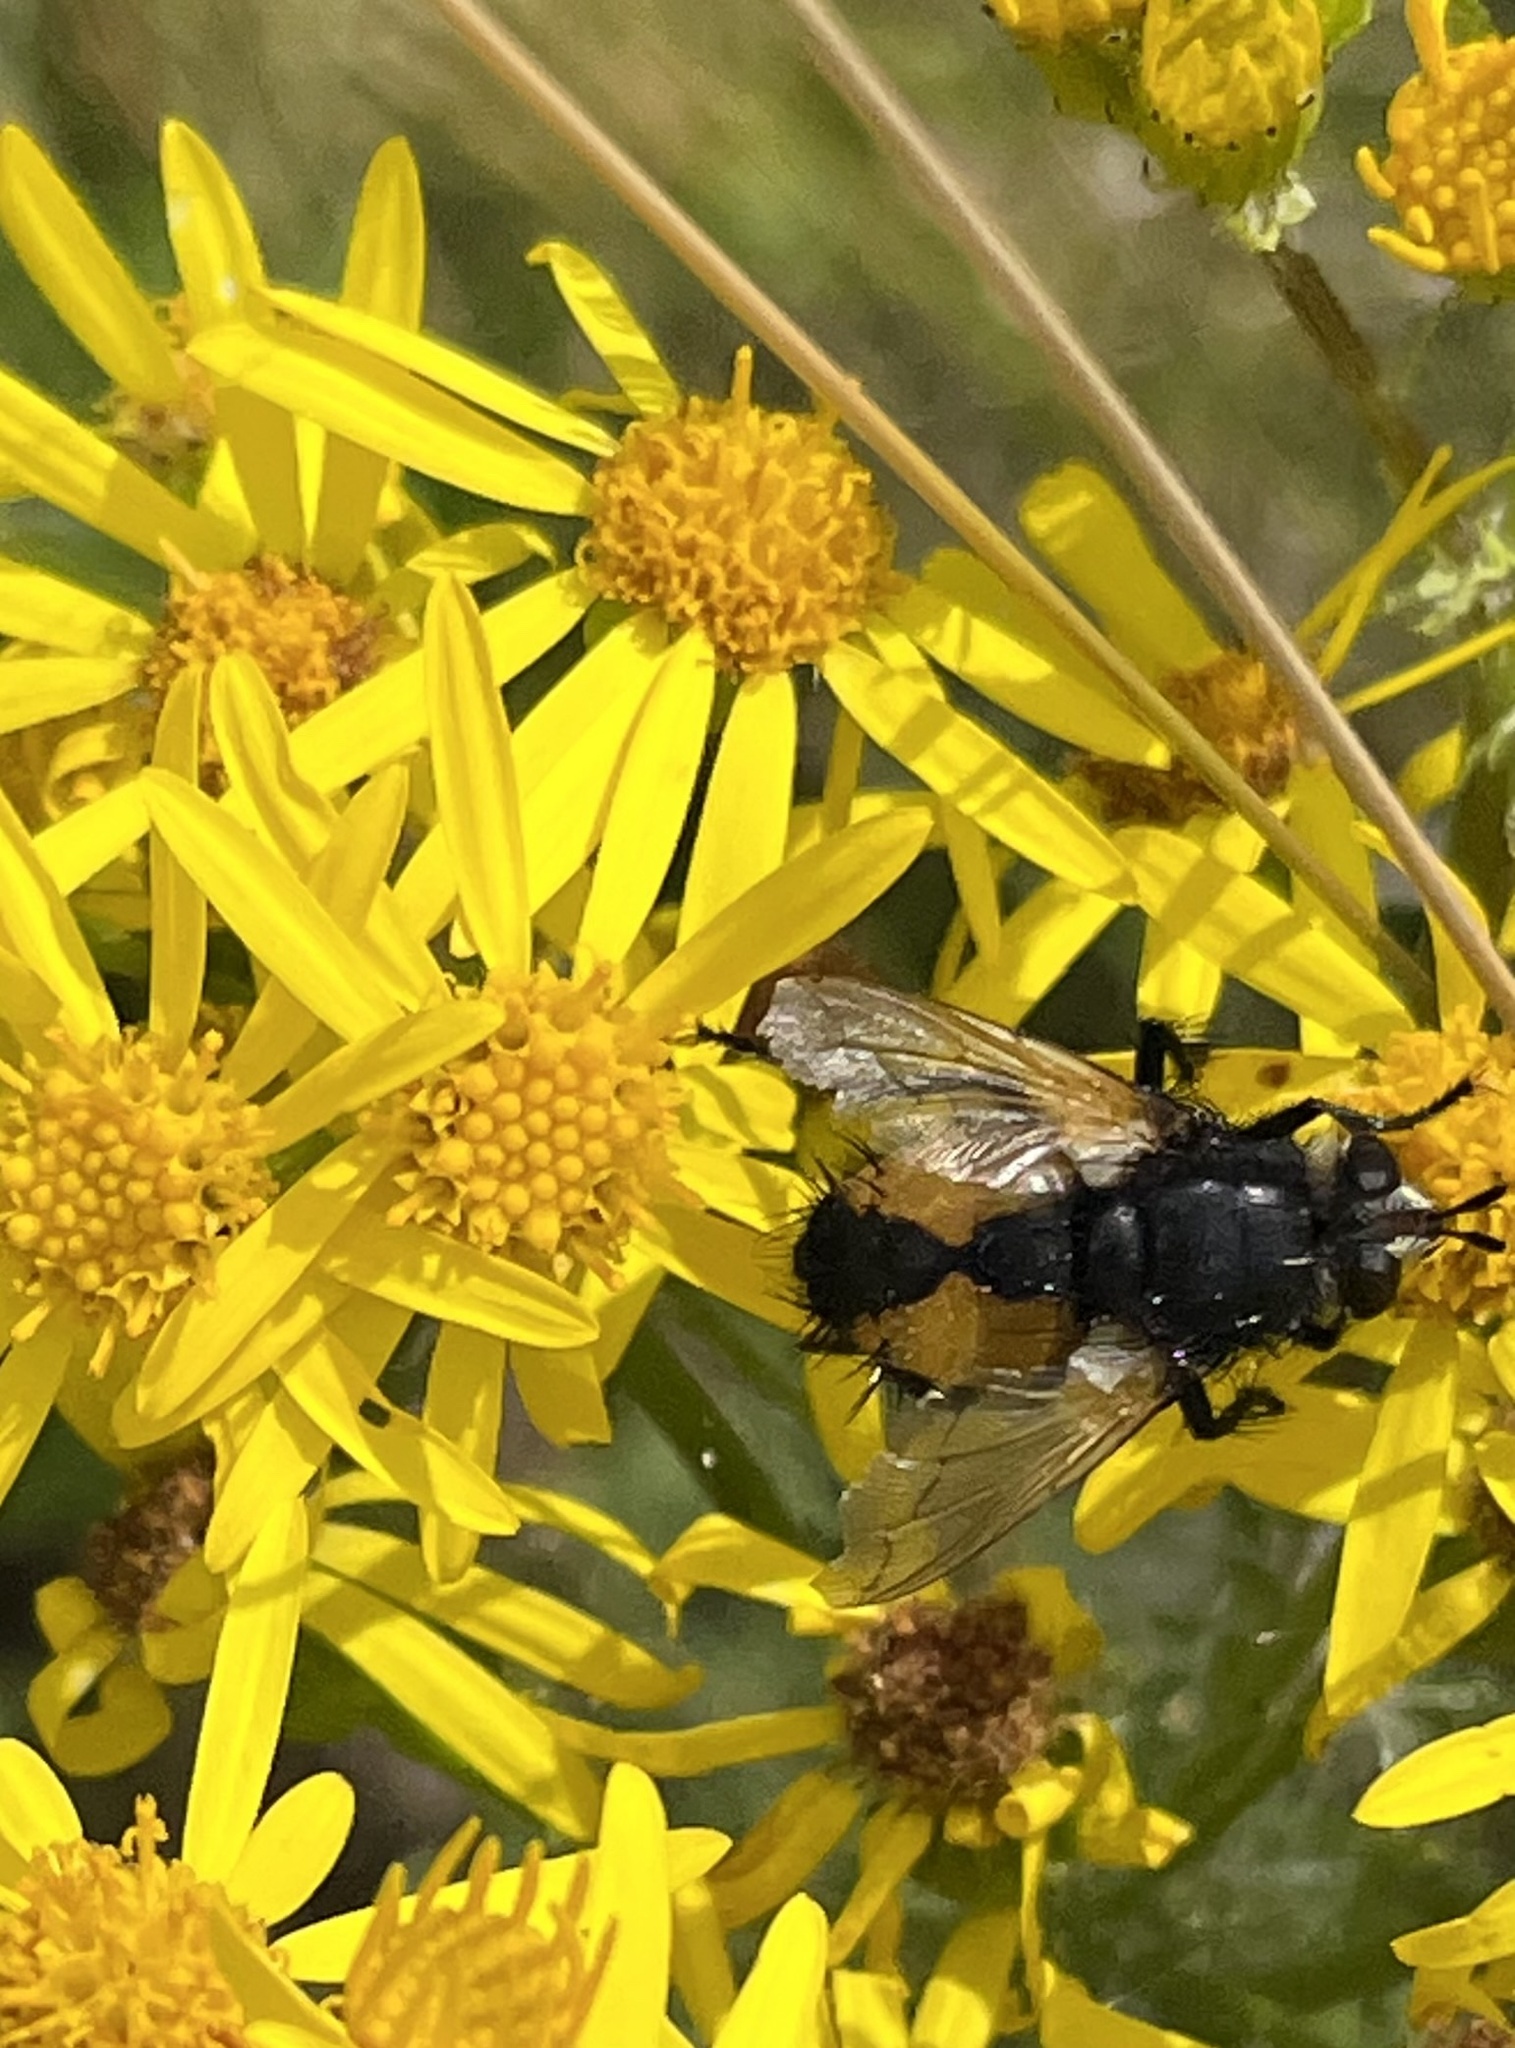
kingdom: Animalia
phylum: Arthropoda
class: Insecta
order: Diptera
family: Tachinidae
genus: Nowickia
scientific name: Nowickia ferox
